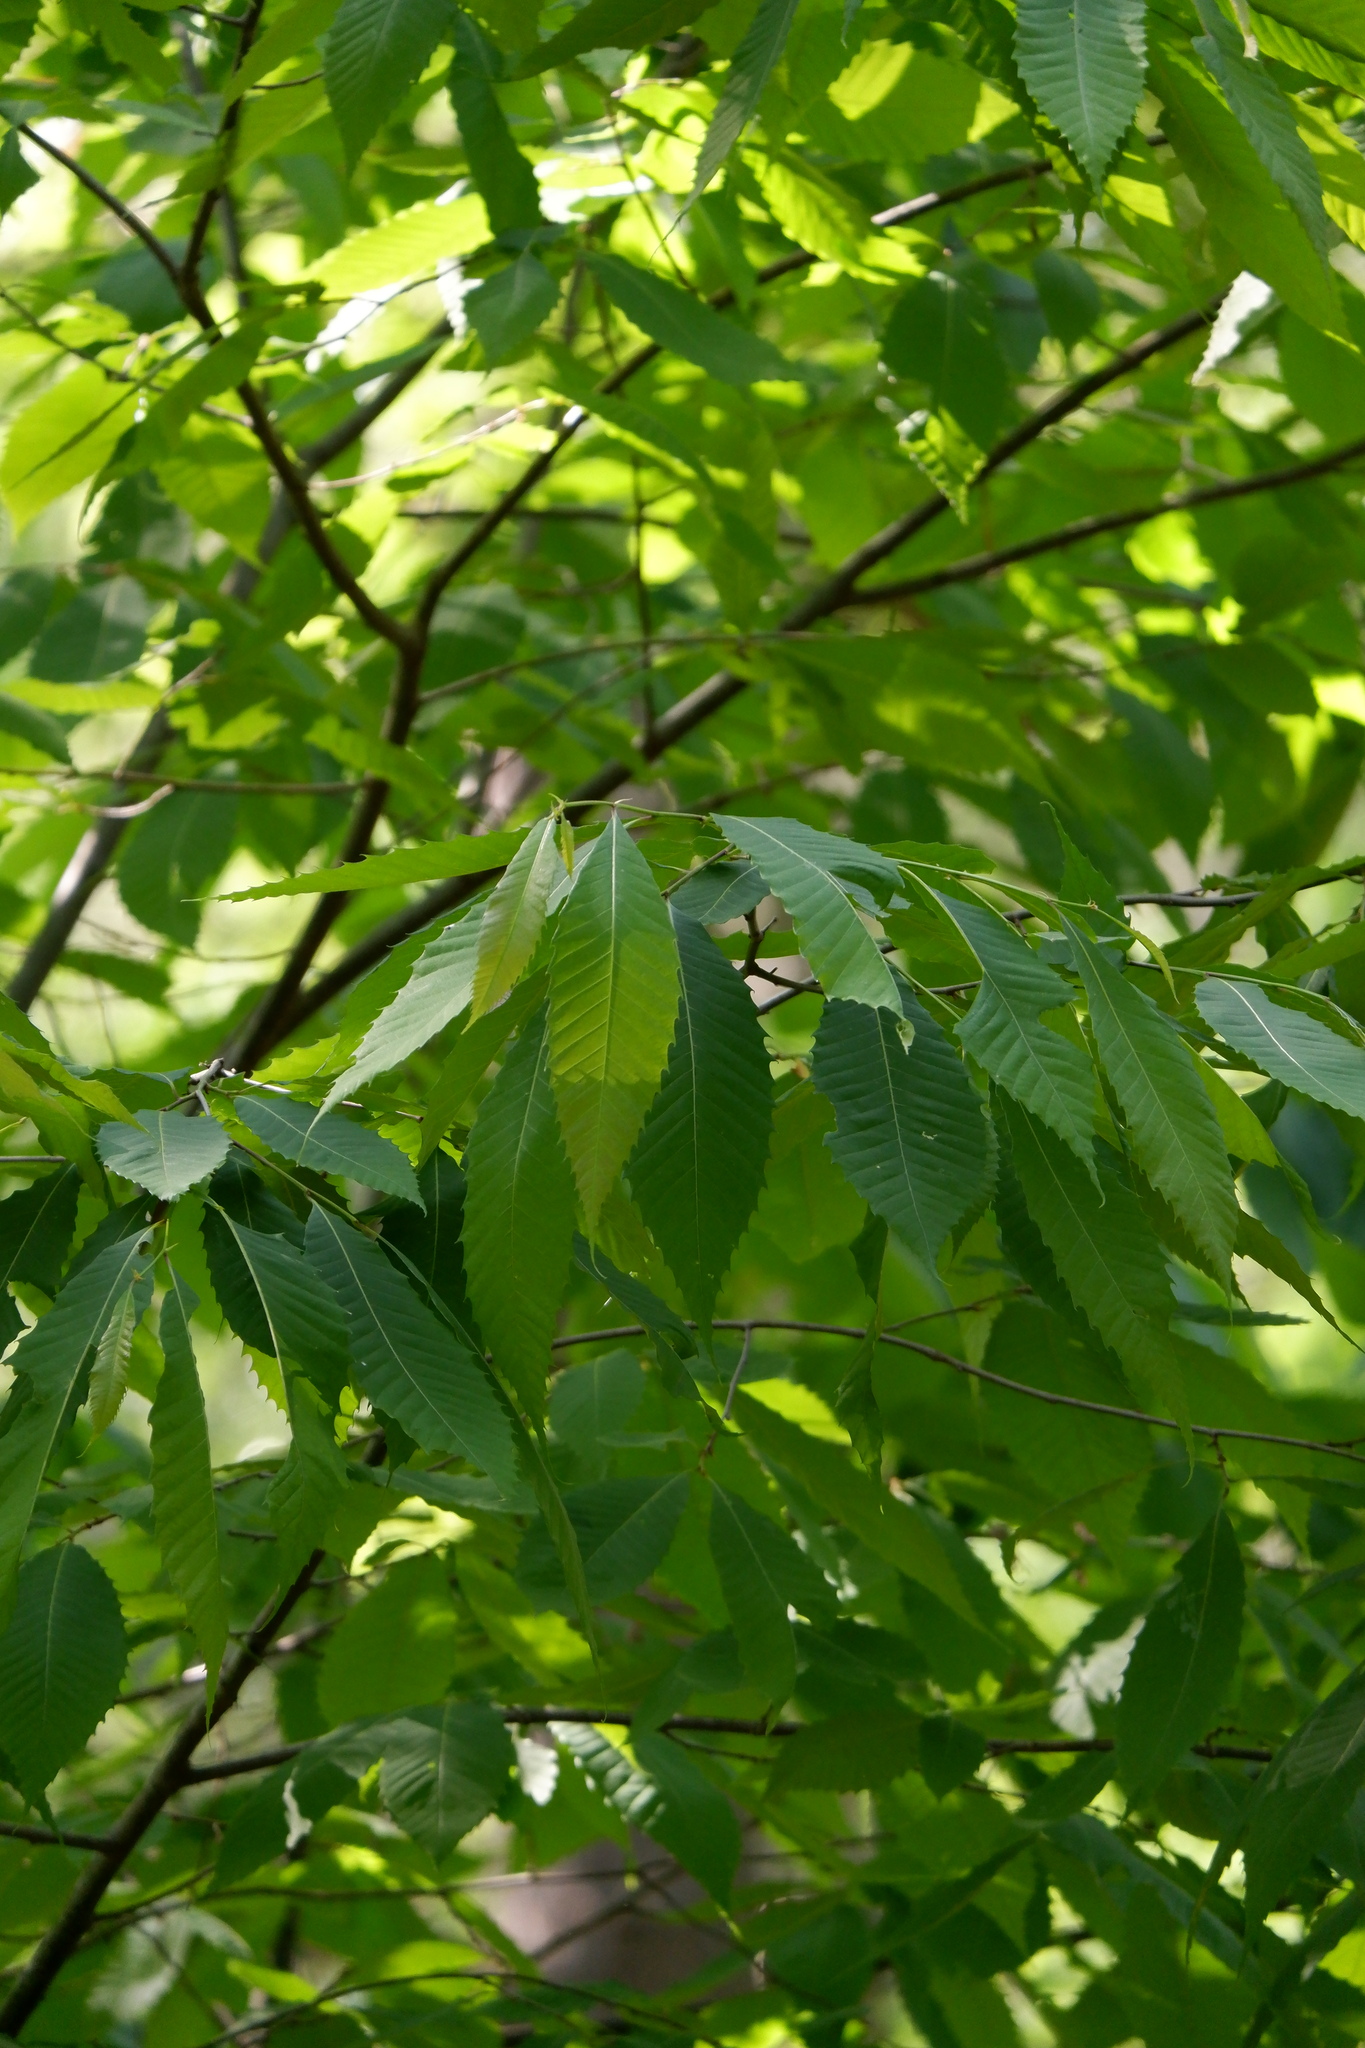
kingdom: Plantae
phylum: Tracheophyta
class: Magnoliopsida
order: Fagales
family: Fagaceae
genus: Castanea
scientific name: Castanea dentata
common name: American chestnut
